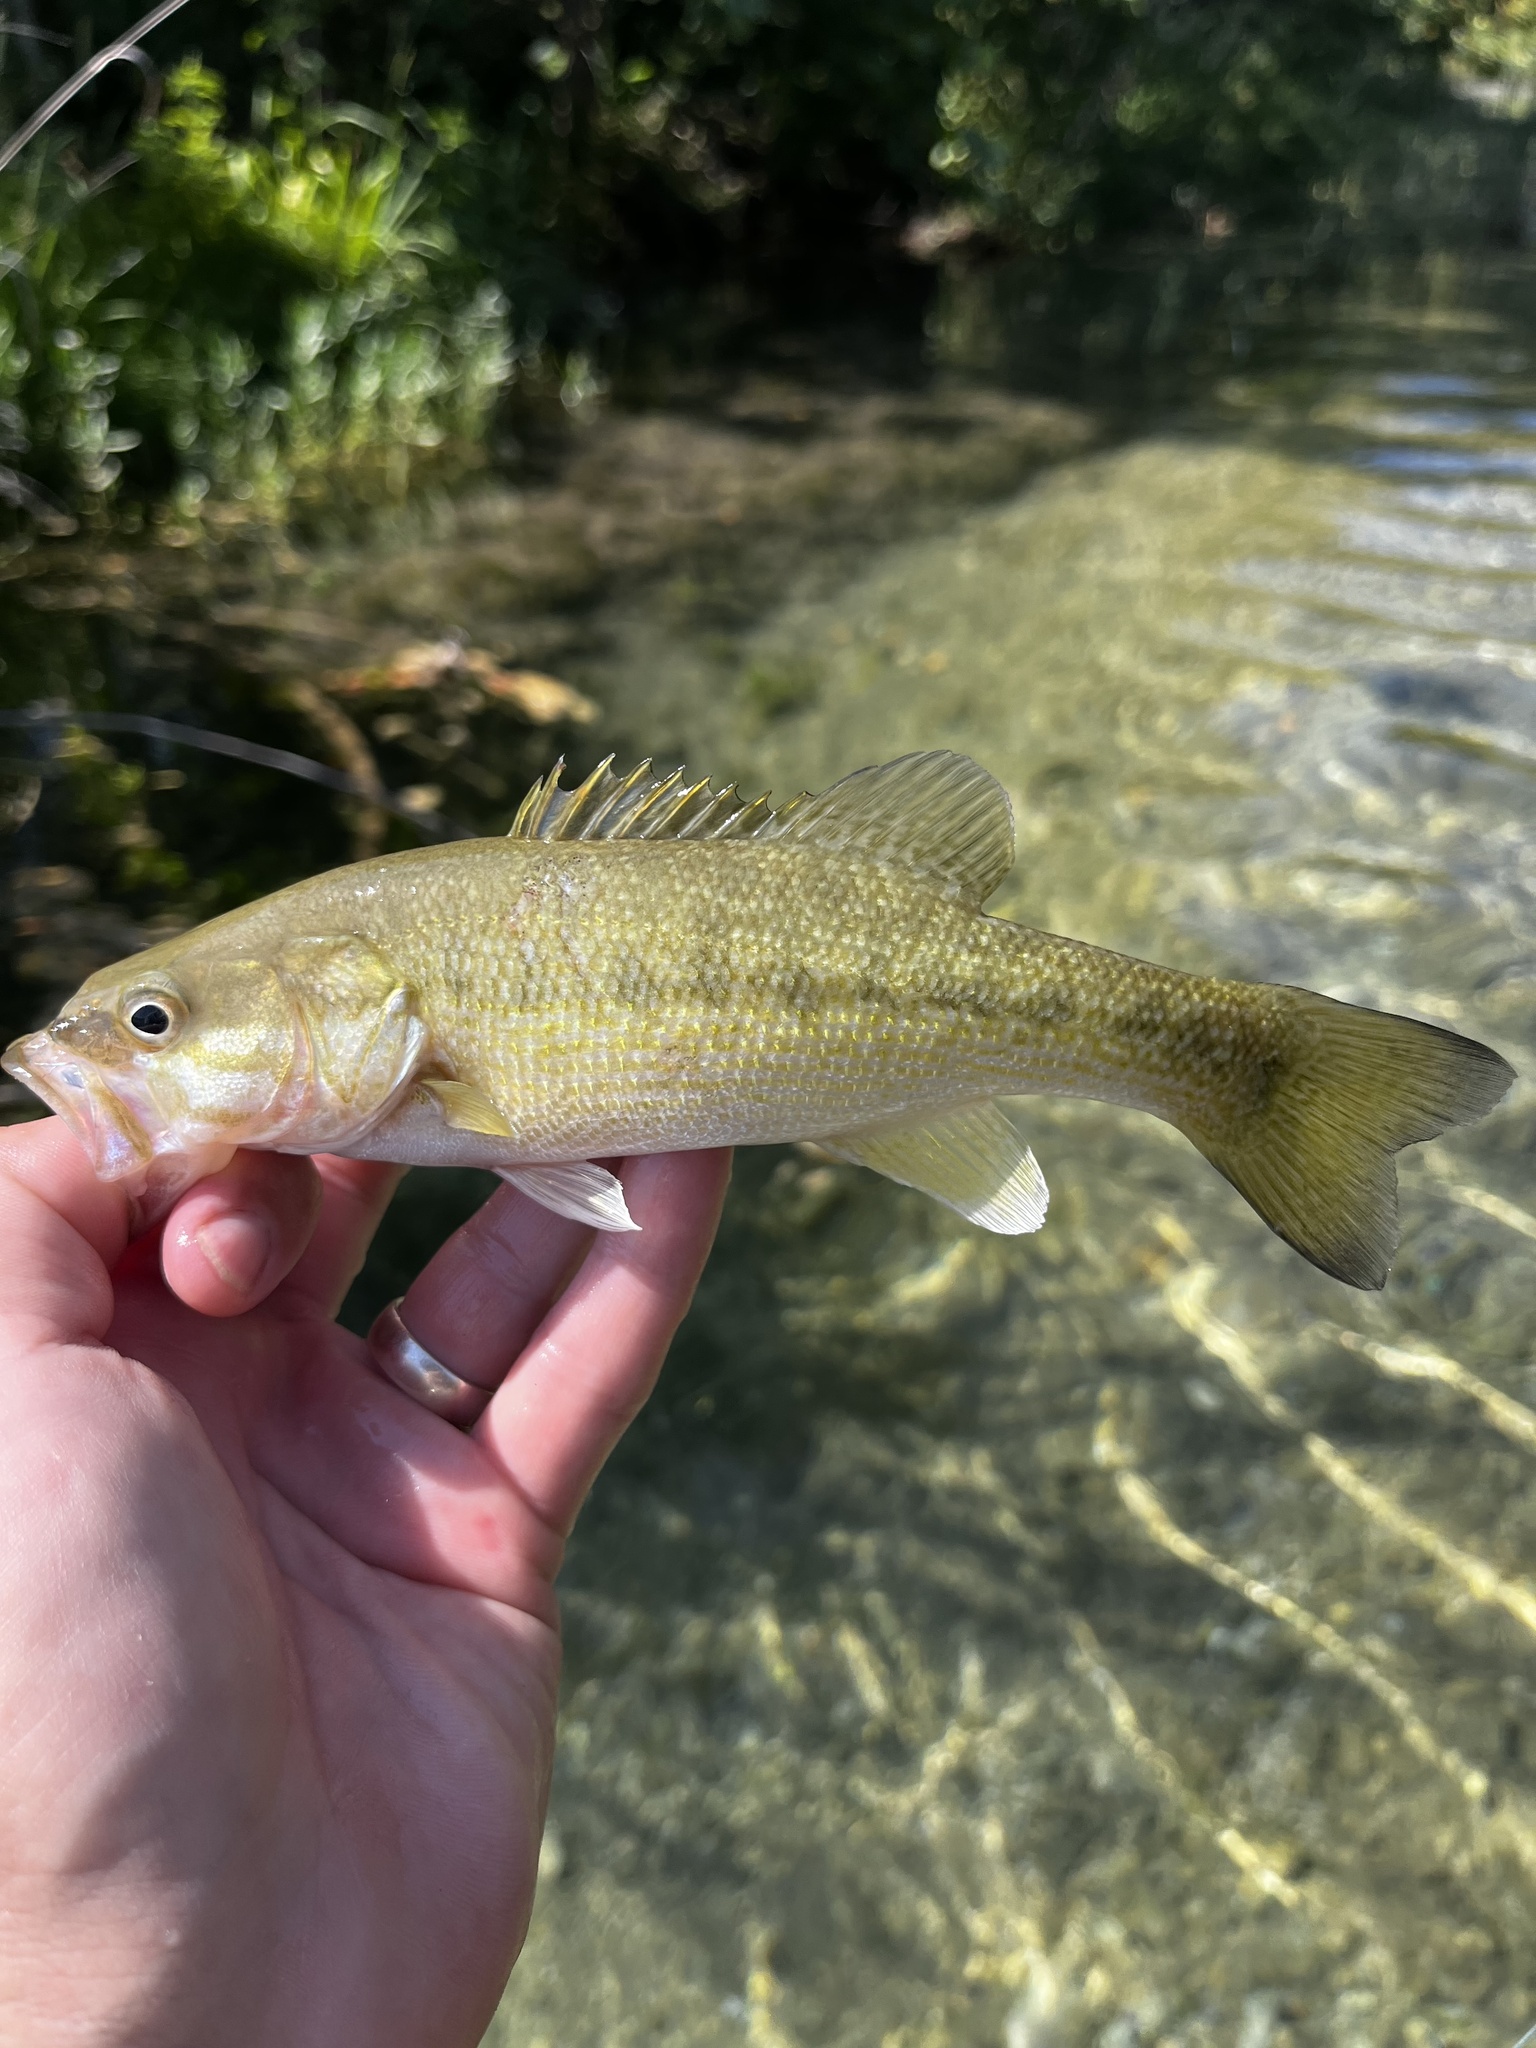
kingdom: Animalia
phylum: Chordata
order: Perciformes
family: Centrarchidae
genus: Micropterus
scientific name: Micropterus treculii
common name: Guadalupe bass
